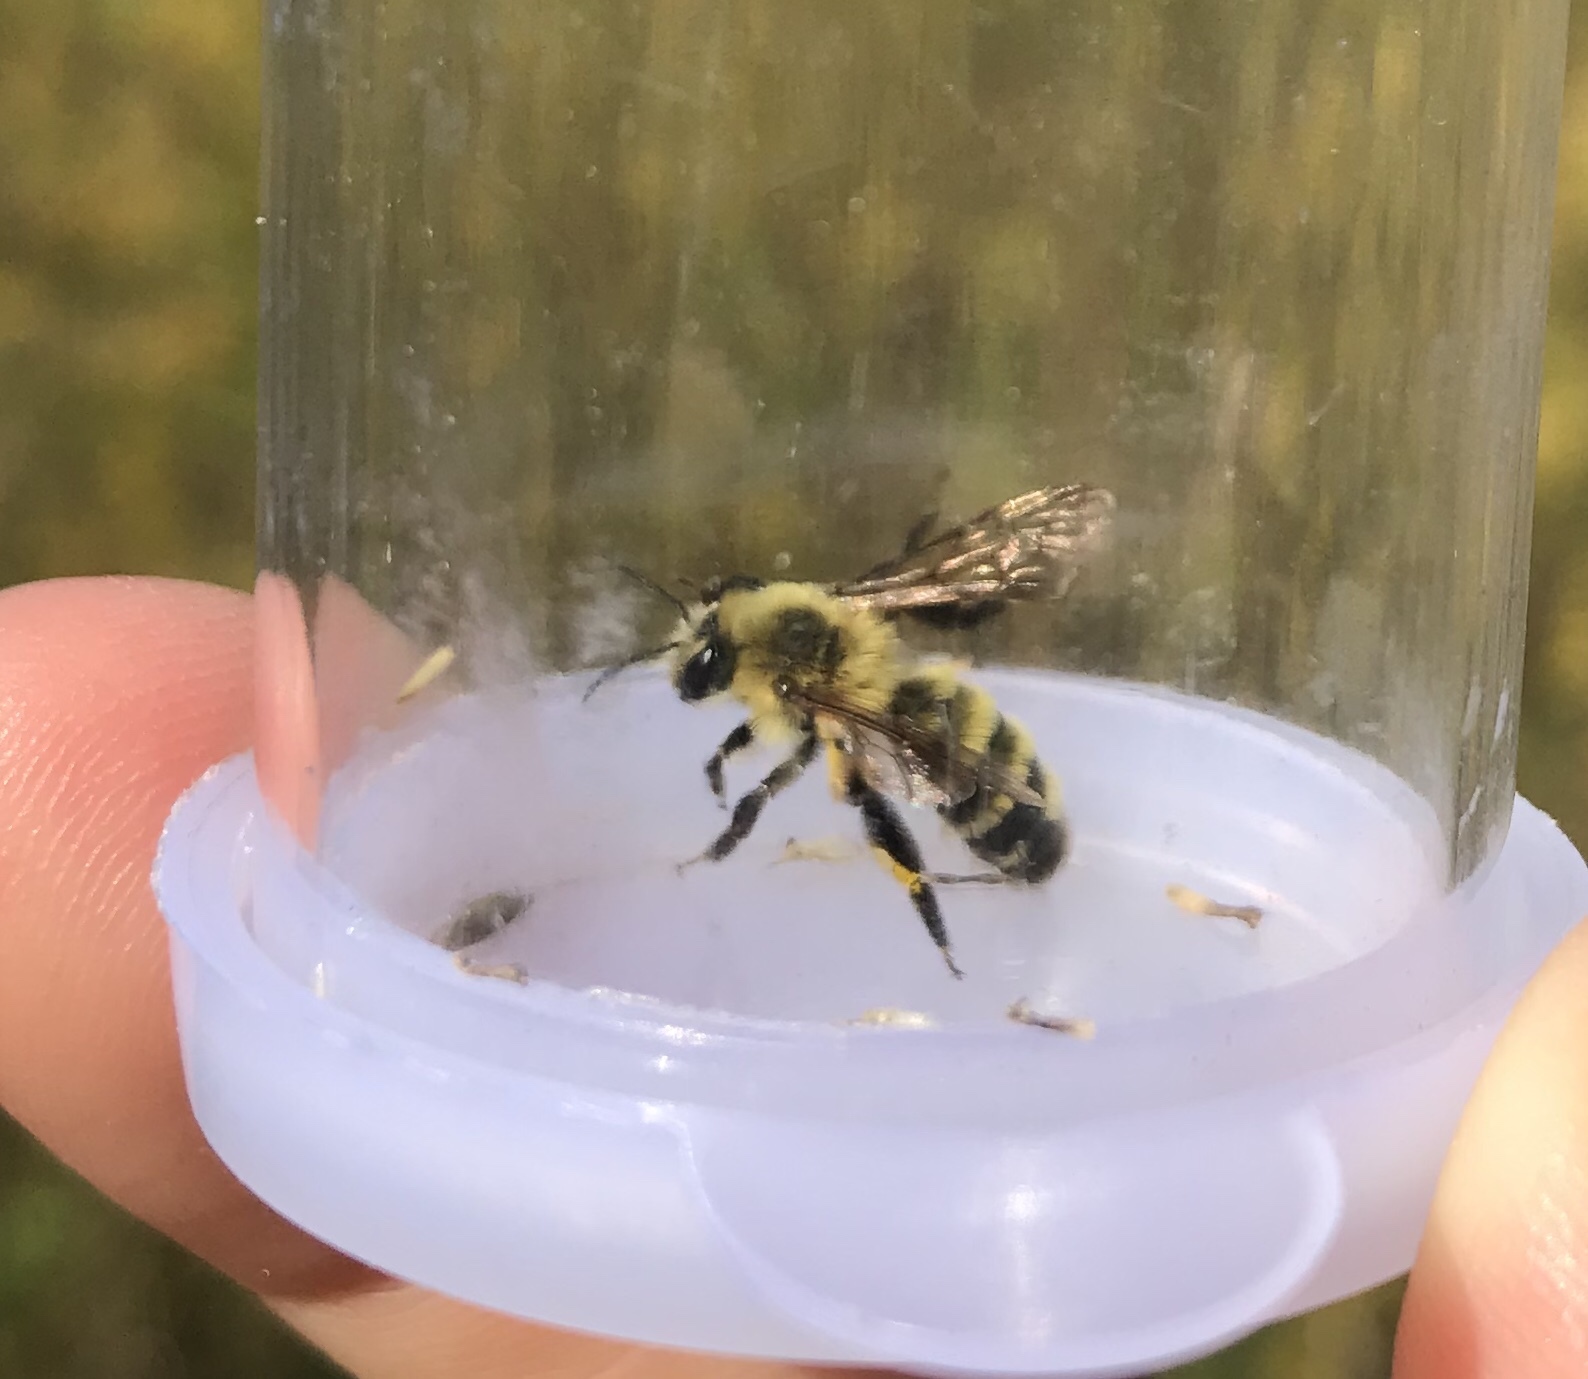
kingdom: Animalia
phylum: Arthropoda
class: Insecta
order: Hymenoptera
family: Andrenidae
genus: Andrena
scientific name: Andrena hirticincta
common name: Hairy-banded mining bee
